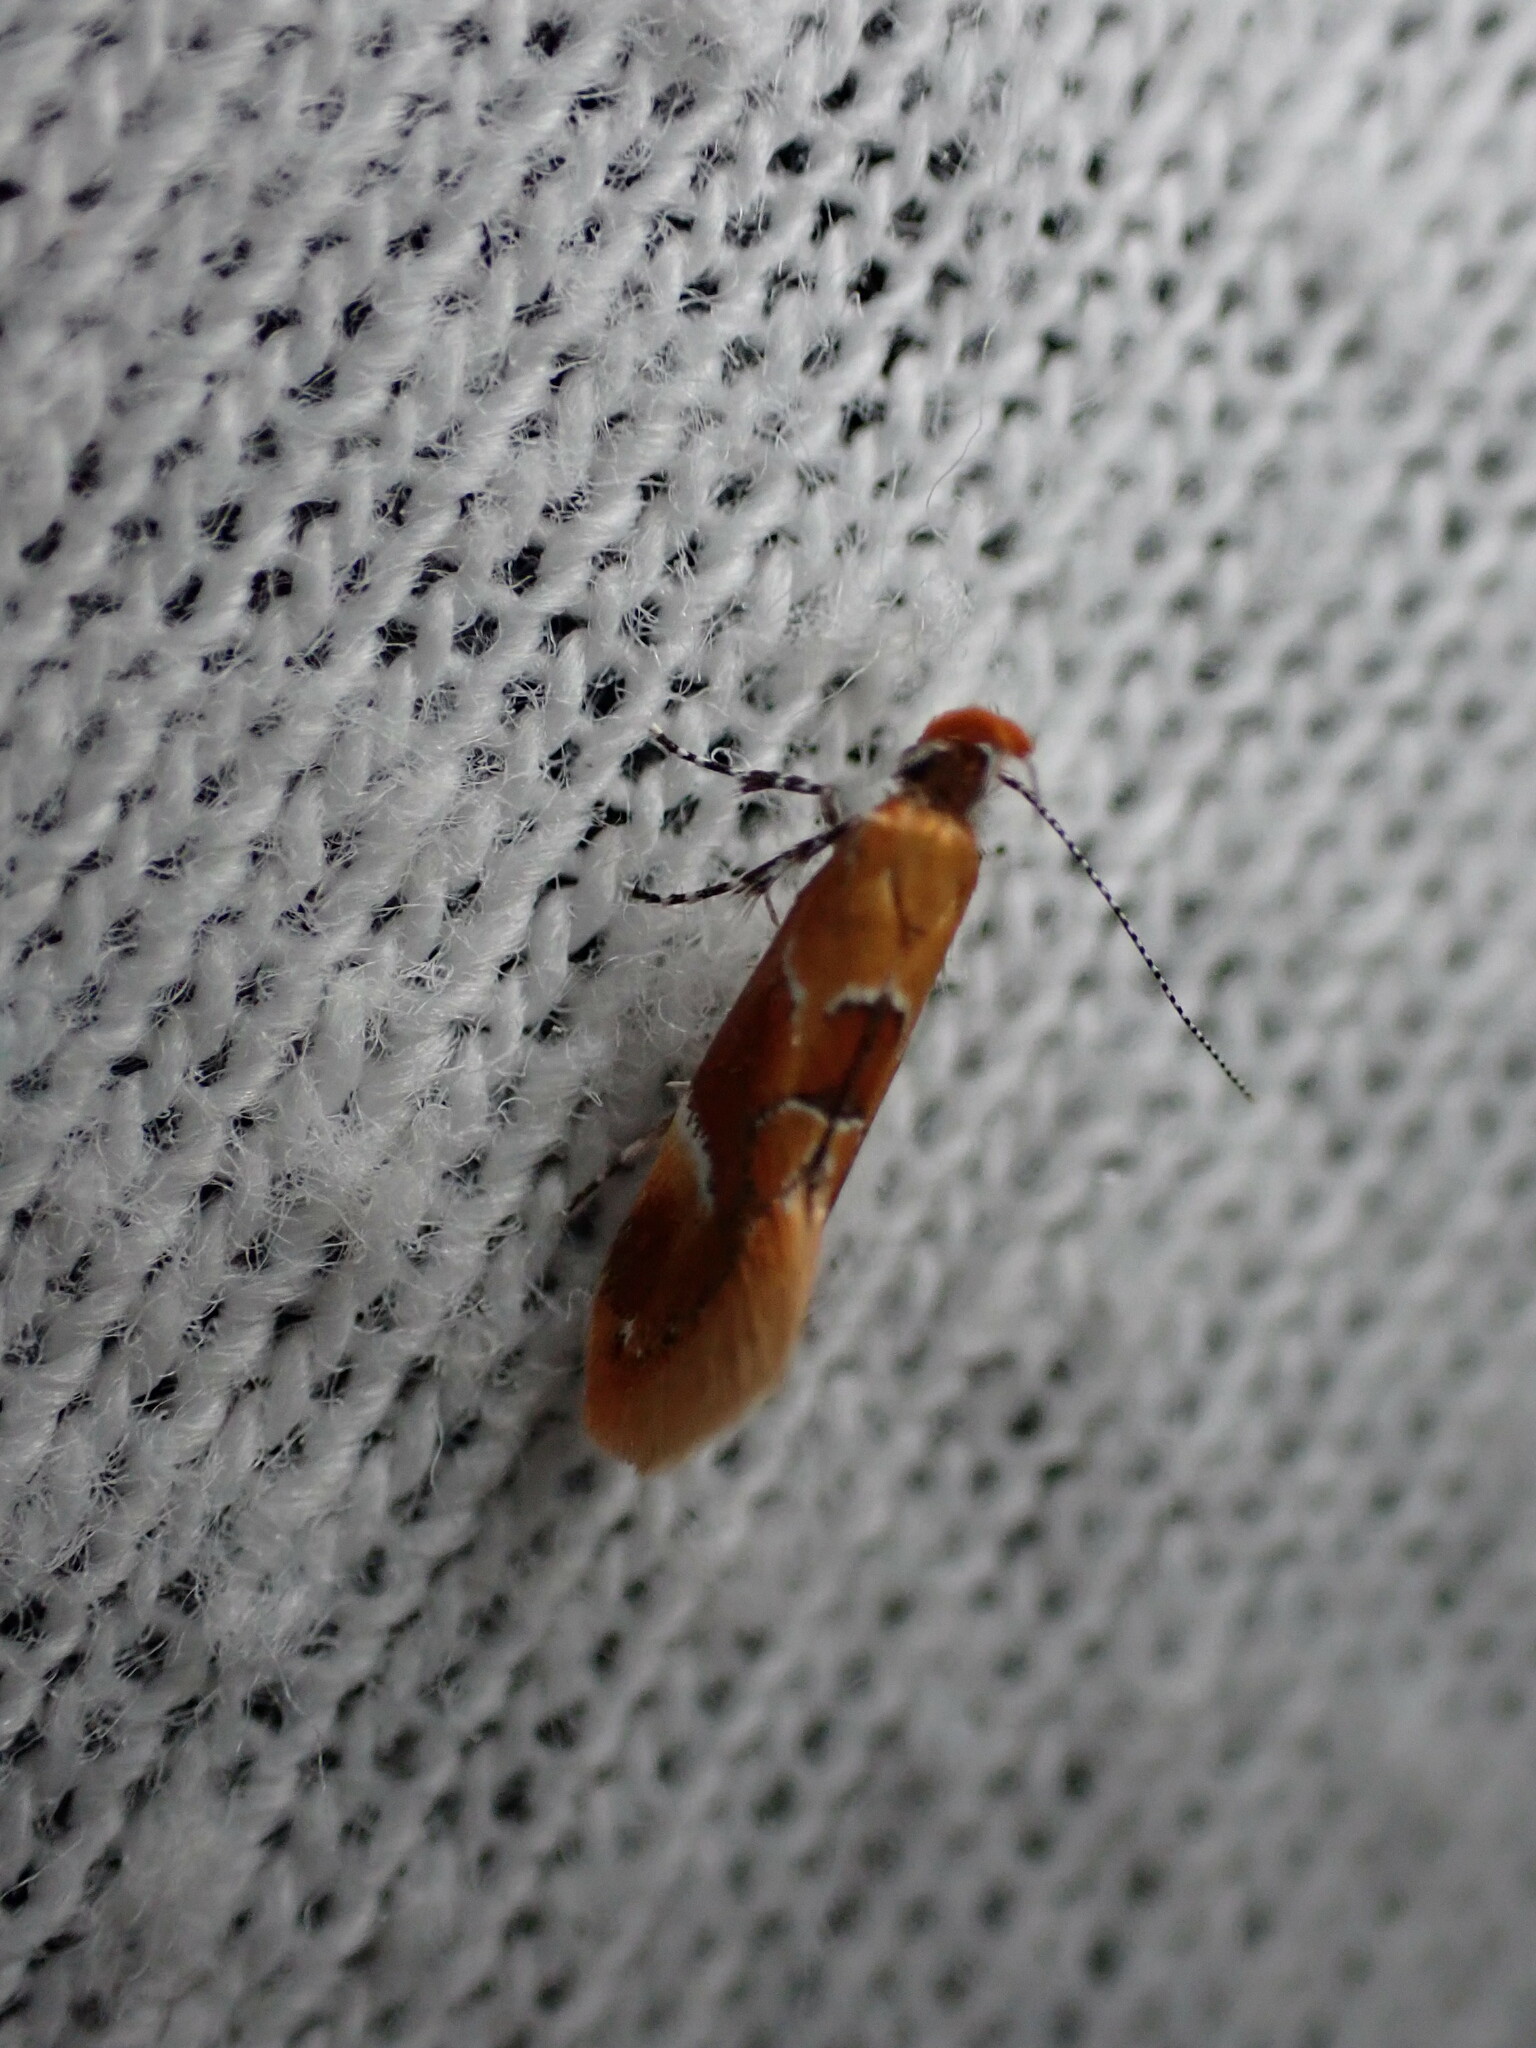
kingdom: Animalia
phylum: Arthropoda
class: Insecta
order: Lepidoptera
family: Oecophoridae
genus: Callima
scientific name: Callima formosella
